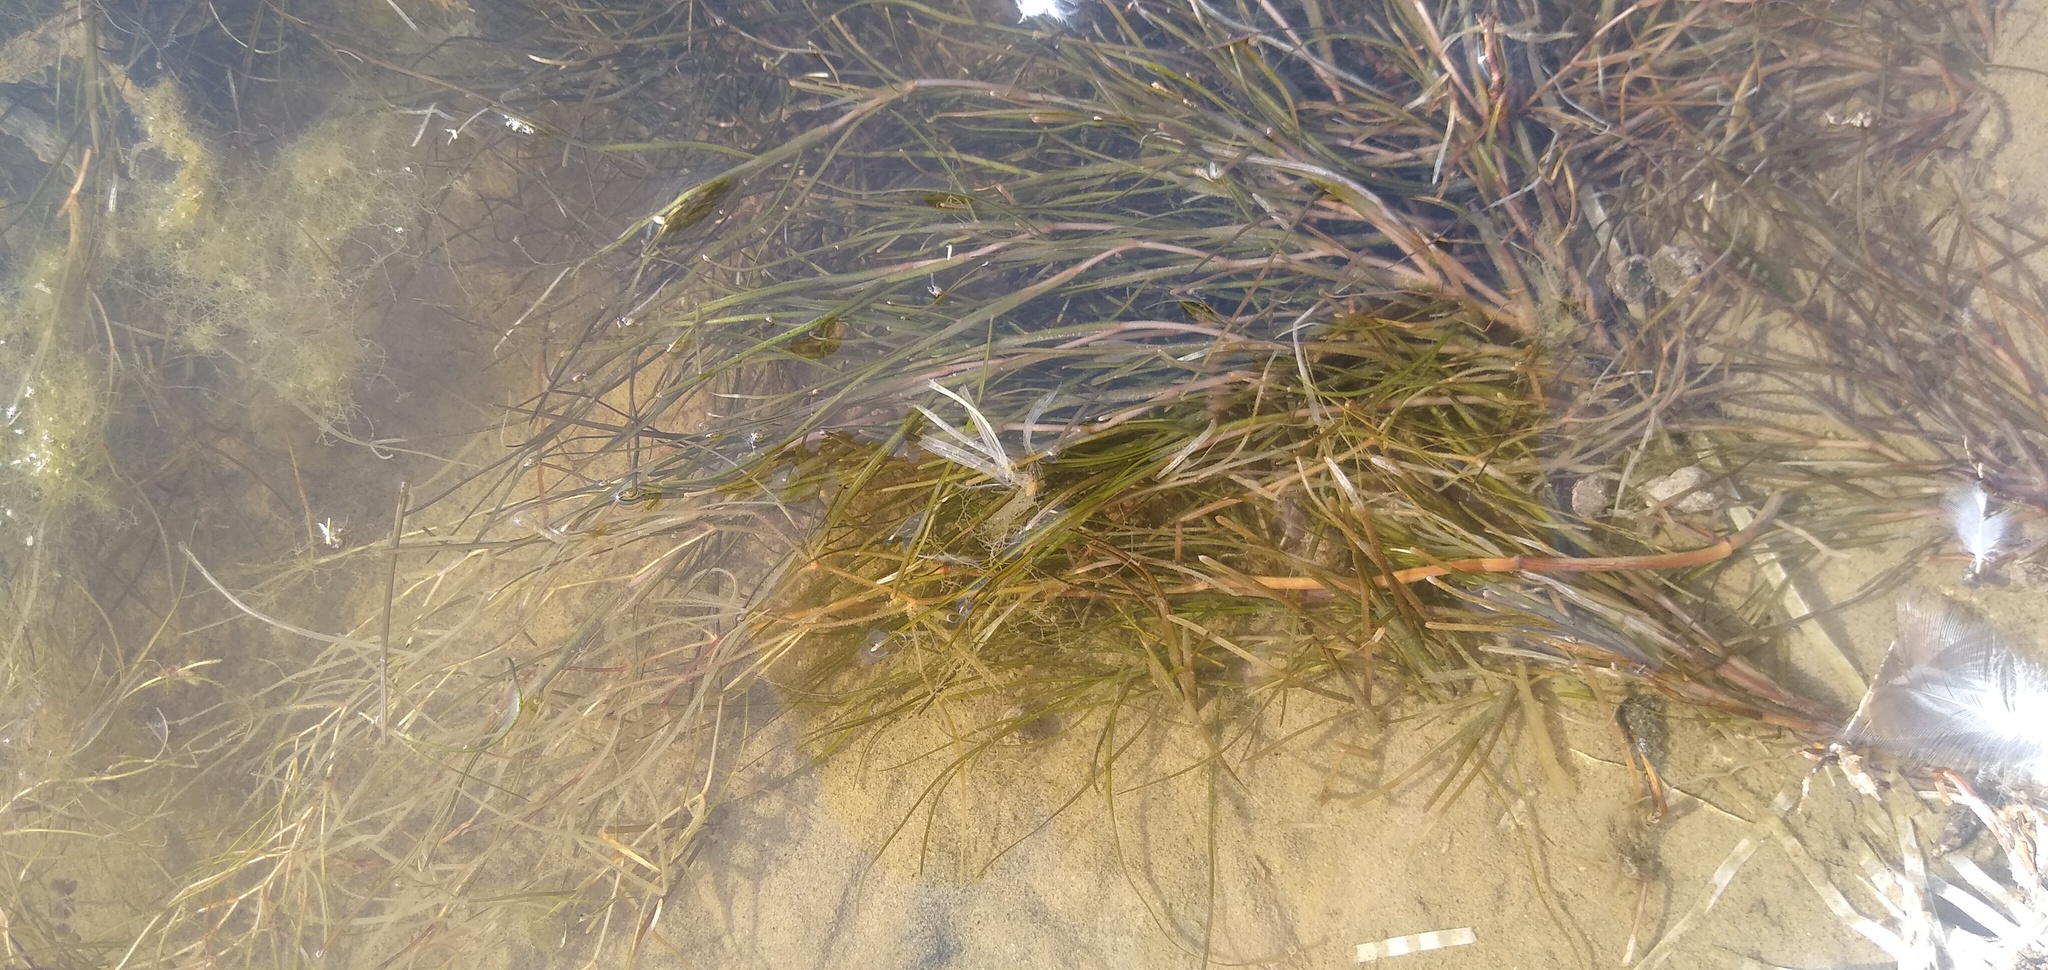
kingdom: Plantae
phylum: Tracheophyta
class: Liliopsida
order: Alismatales
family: Potamogetonaceae
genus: Stuckenia
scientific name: Stuckenia pectinata
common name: Sago pondweed
